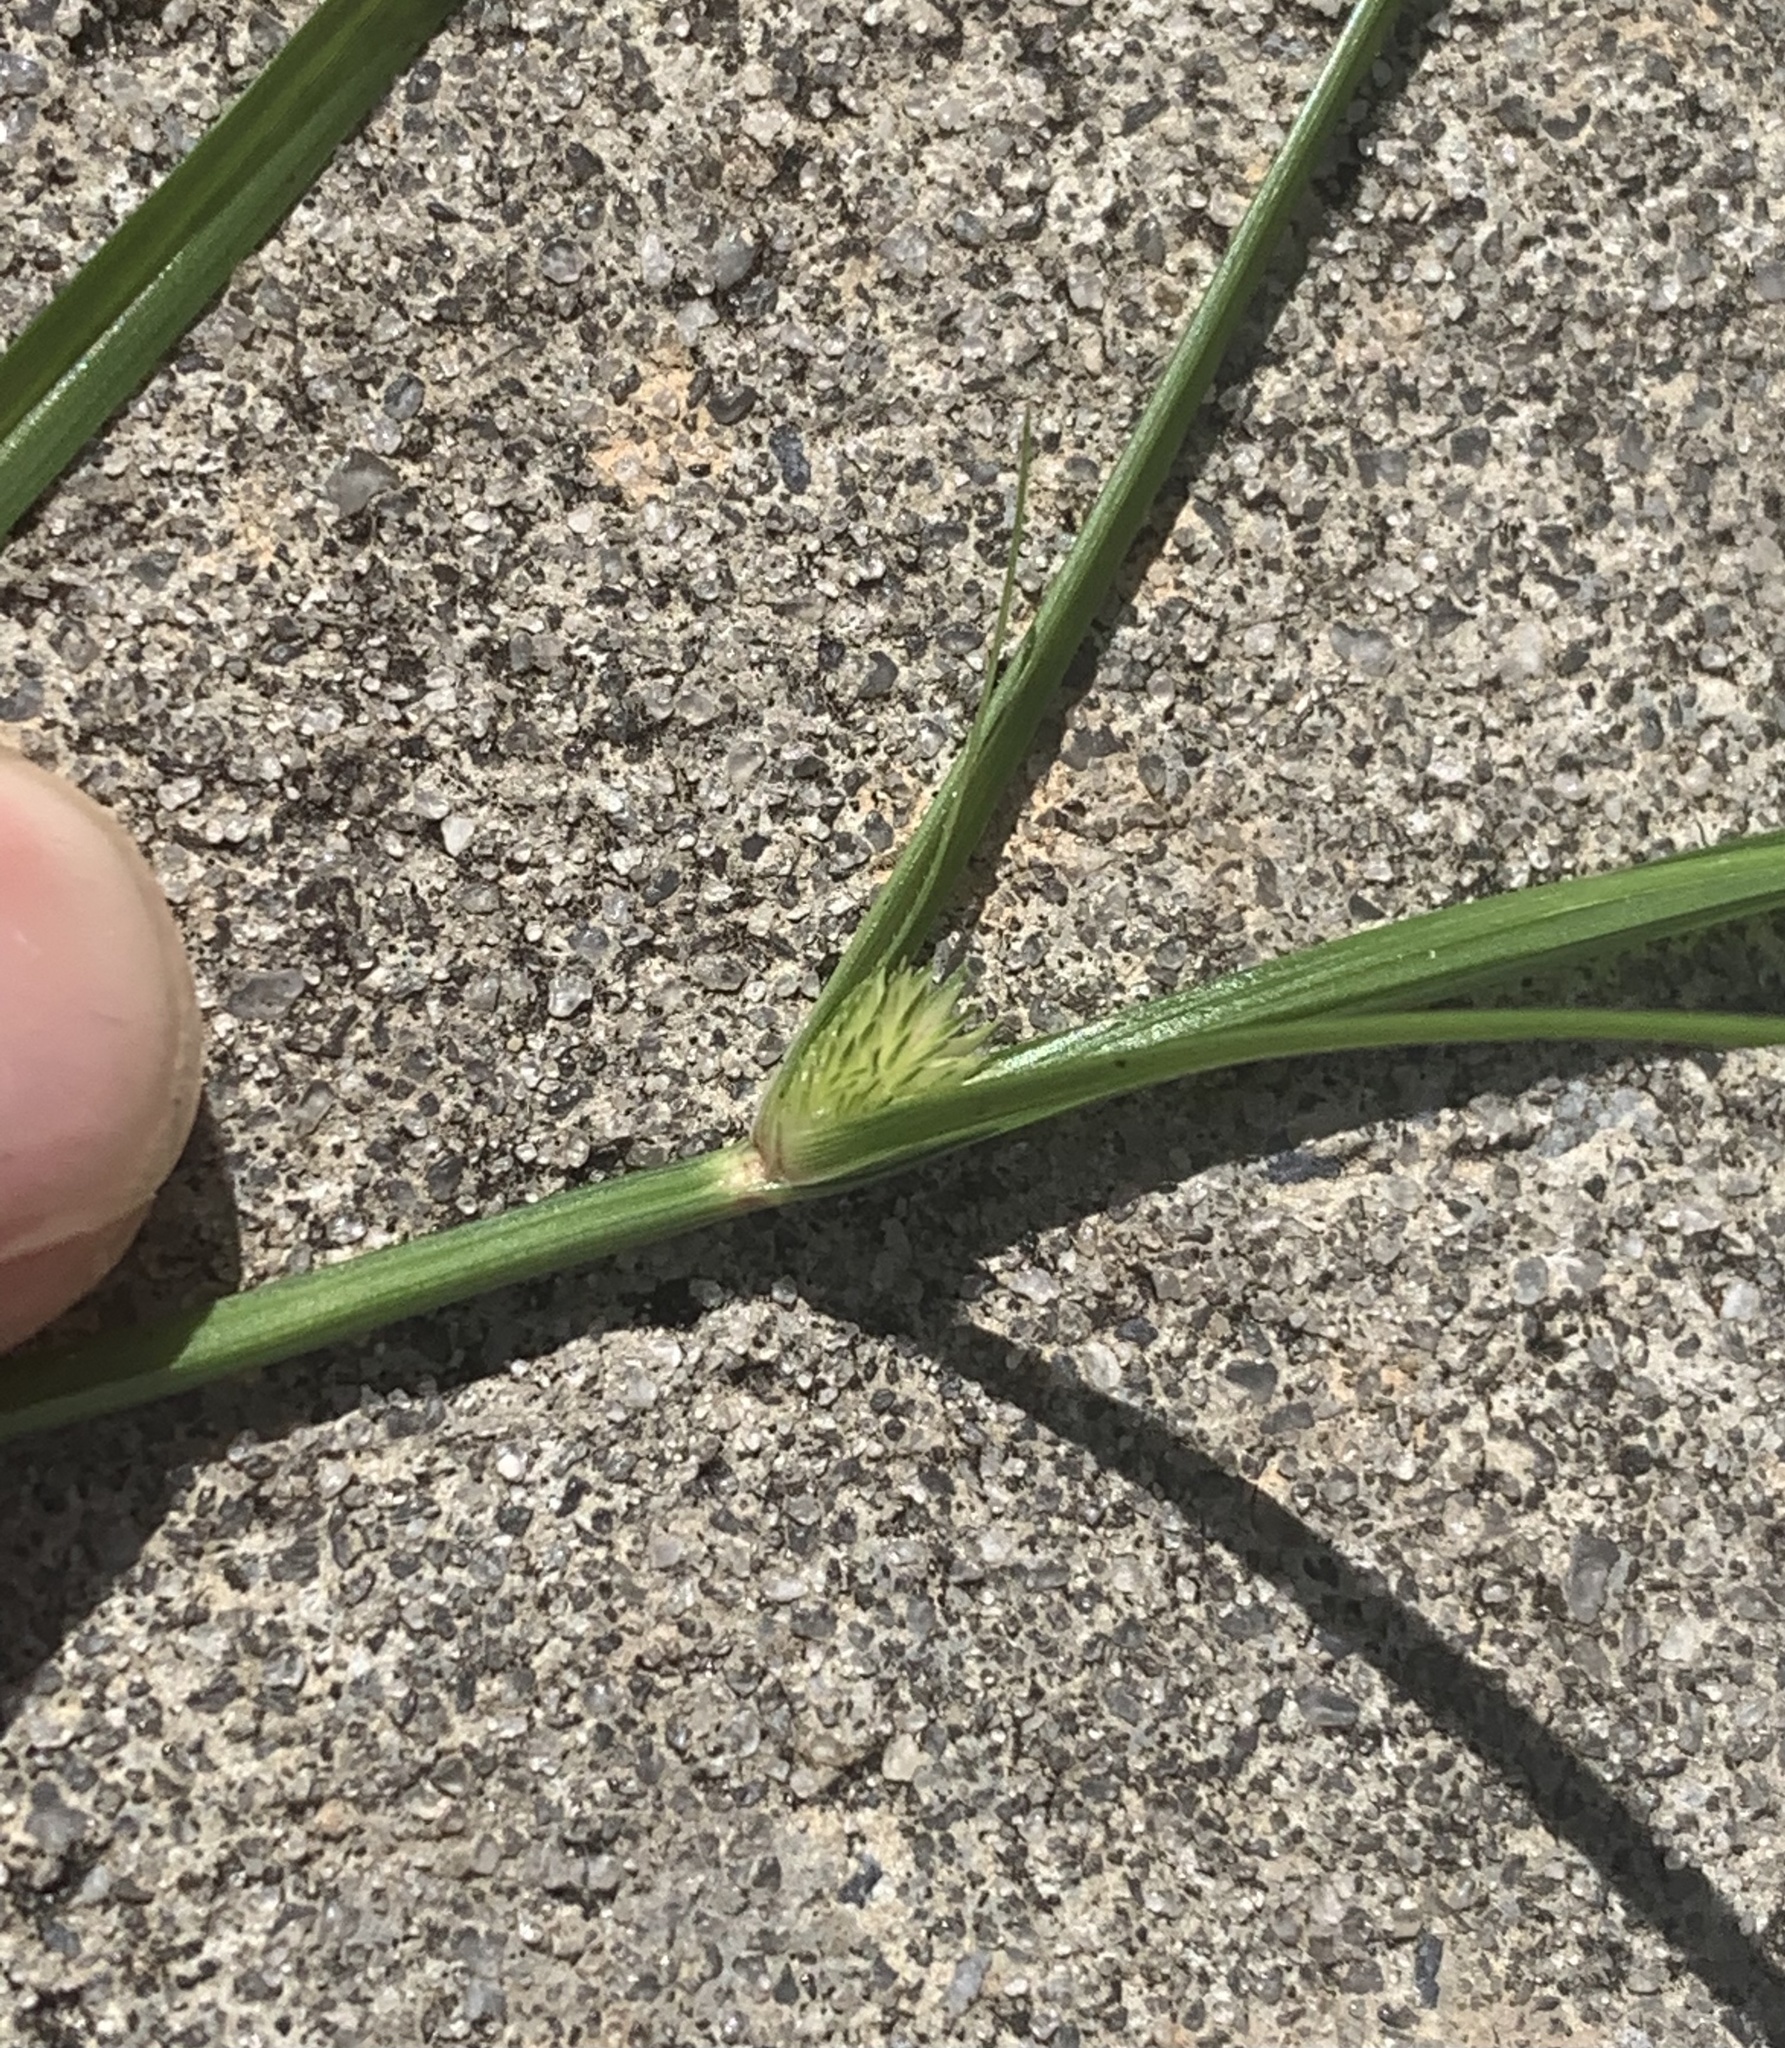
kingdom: Plantae
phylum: Tracheophyta
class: Liliopsida
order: Poales
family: Cyperaceae
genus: Cyperus
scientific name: Cyperus brevifolius
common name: Globe kyllinga
